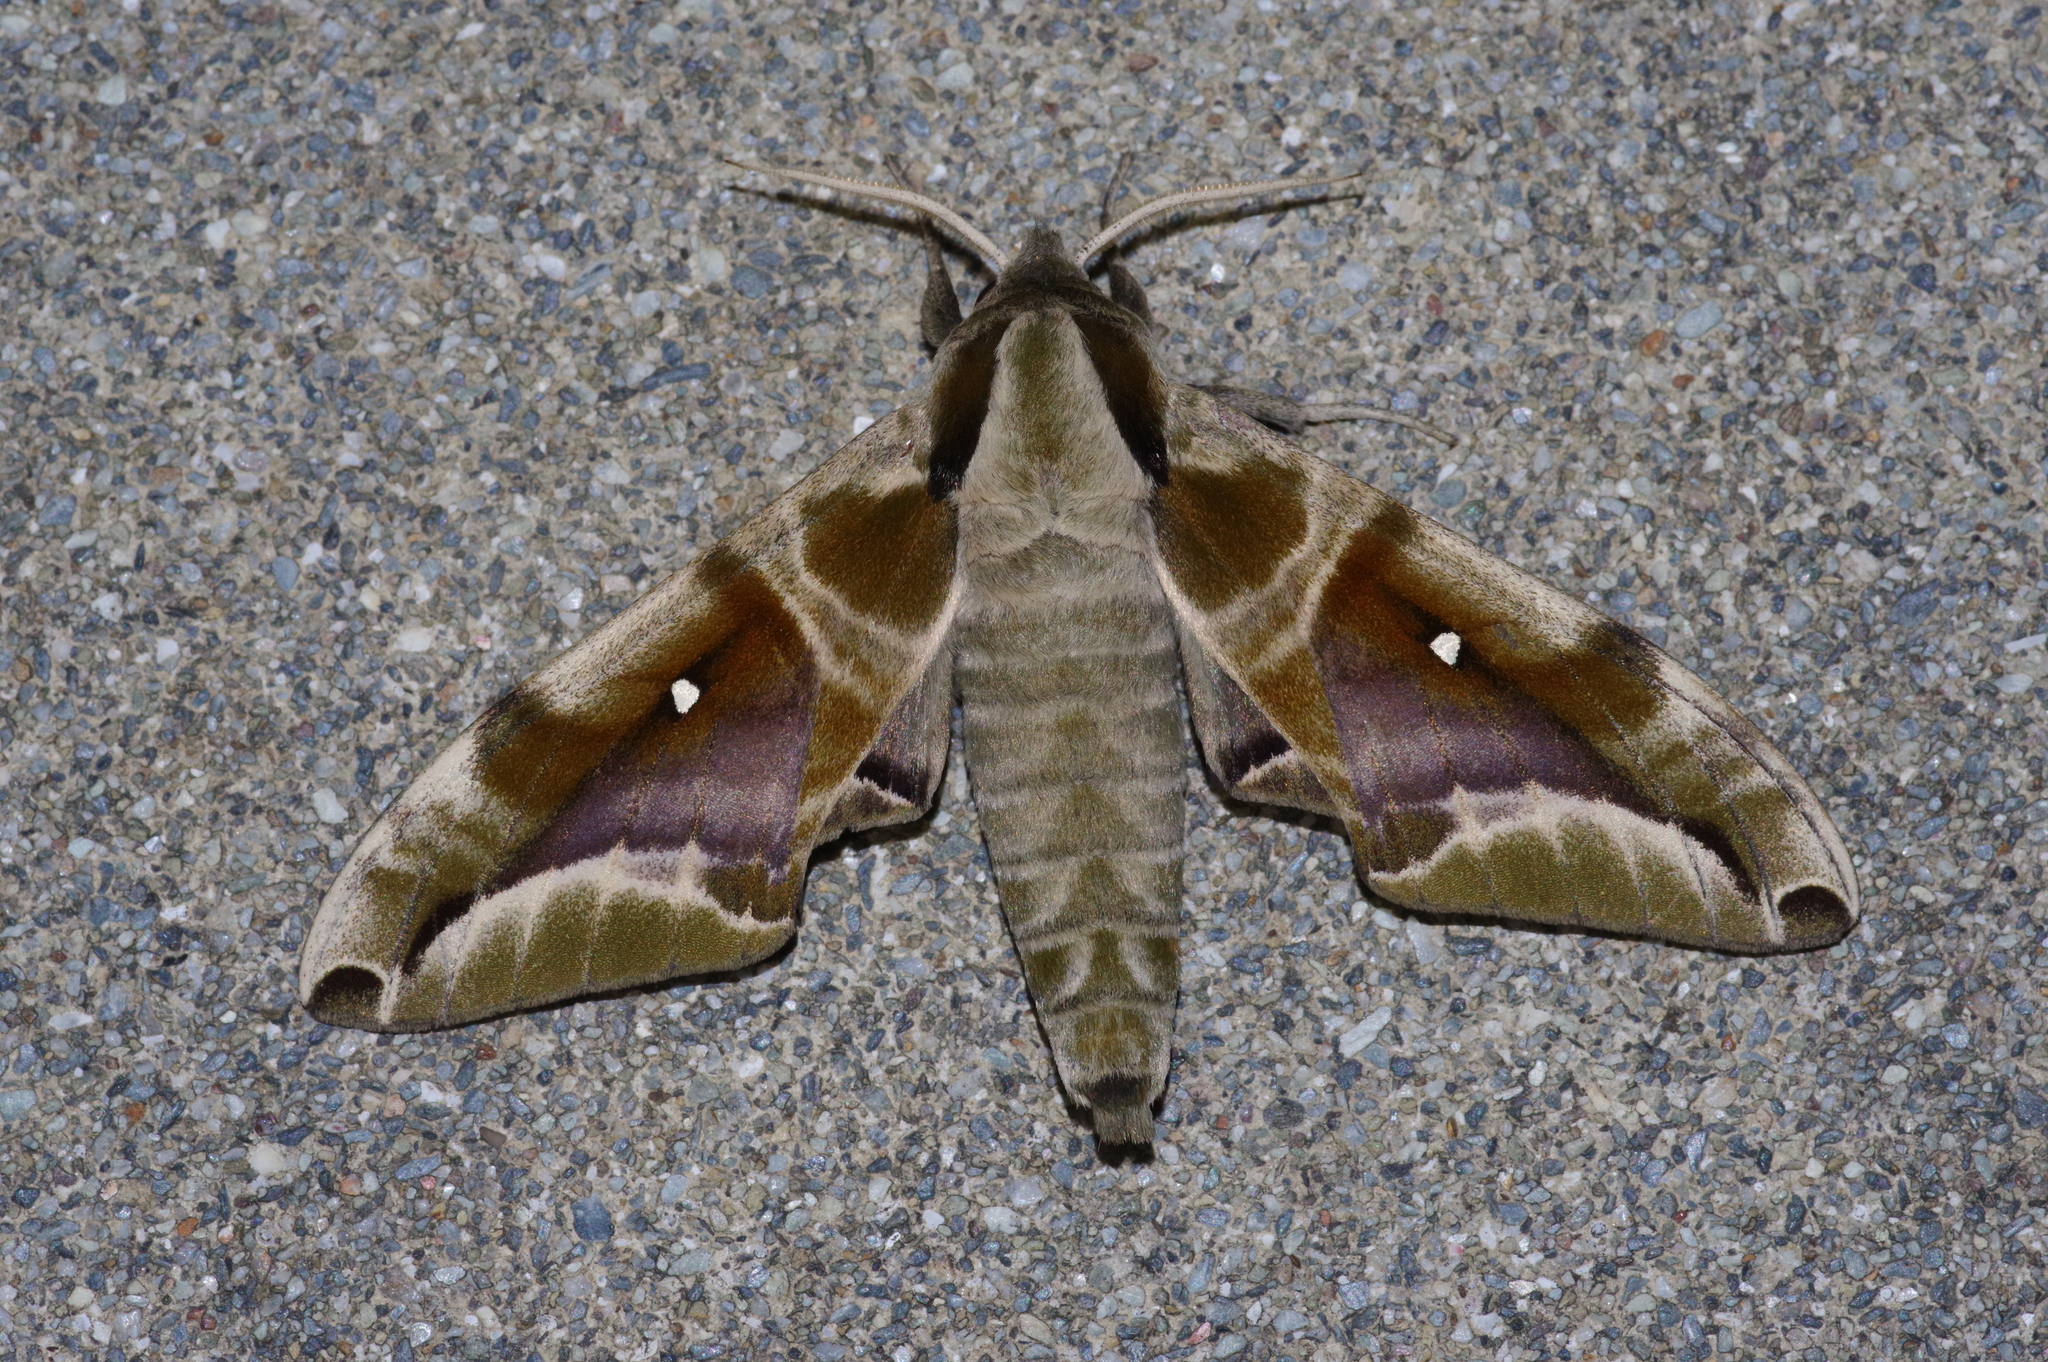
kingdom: Animalia
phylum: Arthropoda
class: Insecta
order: Lepidoptera
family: Sphingidae
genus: Parum
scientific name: Parum colligata
